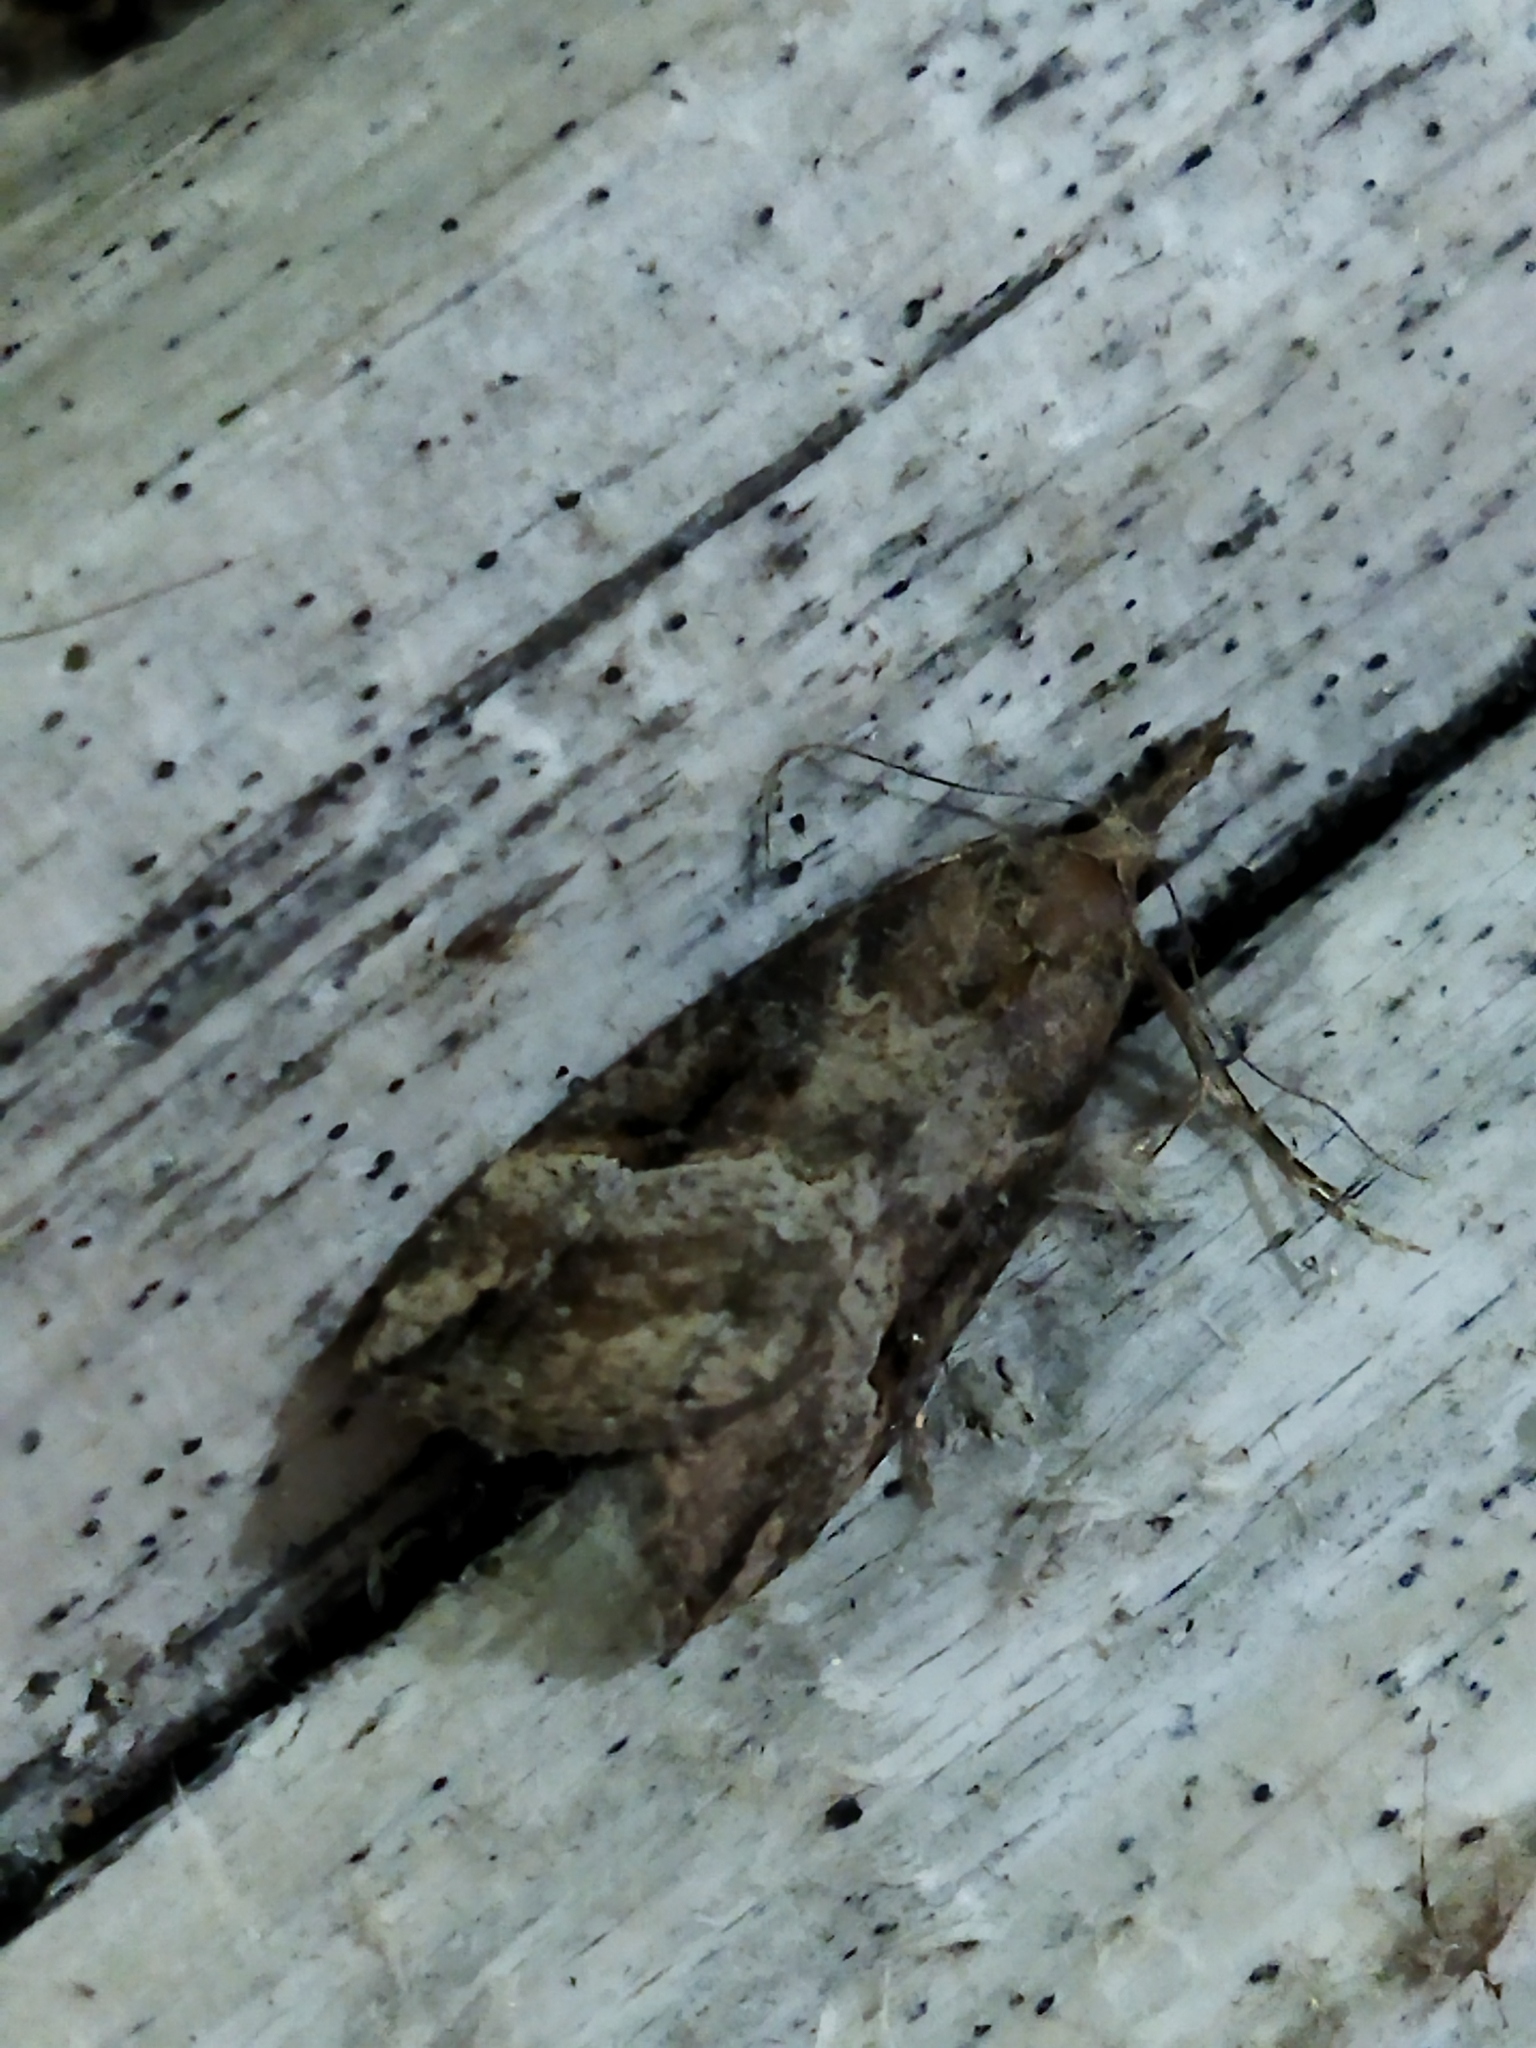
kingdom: Animalia
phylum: Arthropoda
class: Insecta
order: Lepidoptera
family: Erebidae
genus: Hypena
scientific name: Hypena rostralis
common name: Buttoned snout
